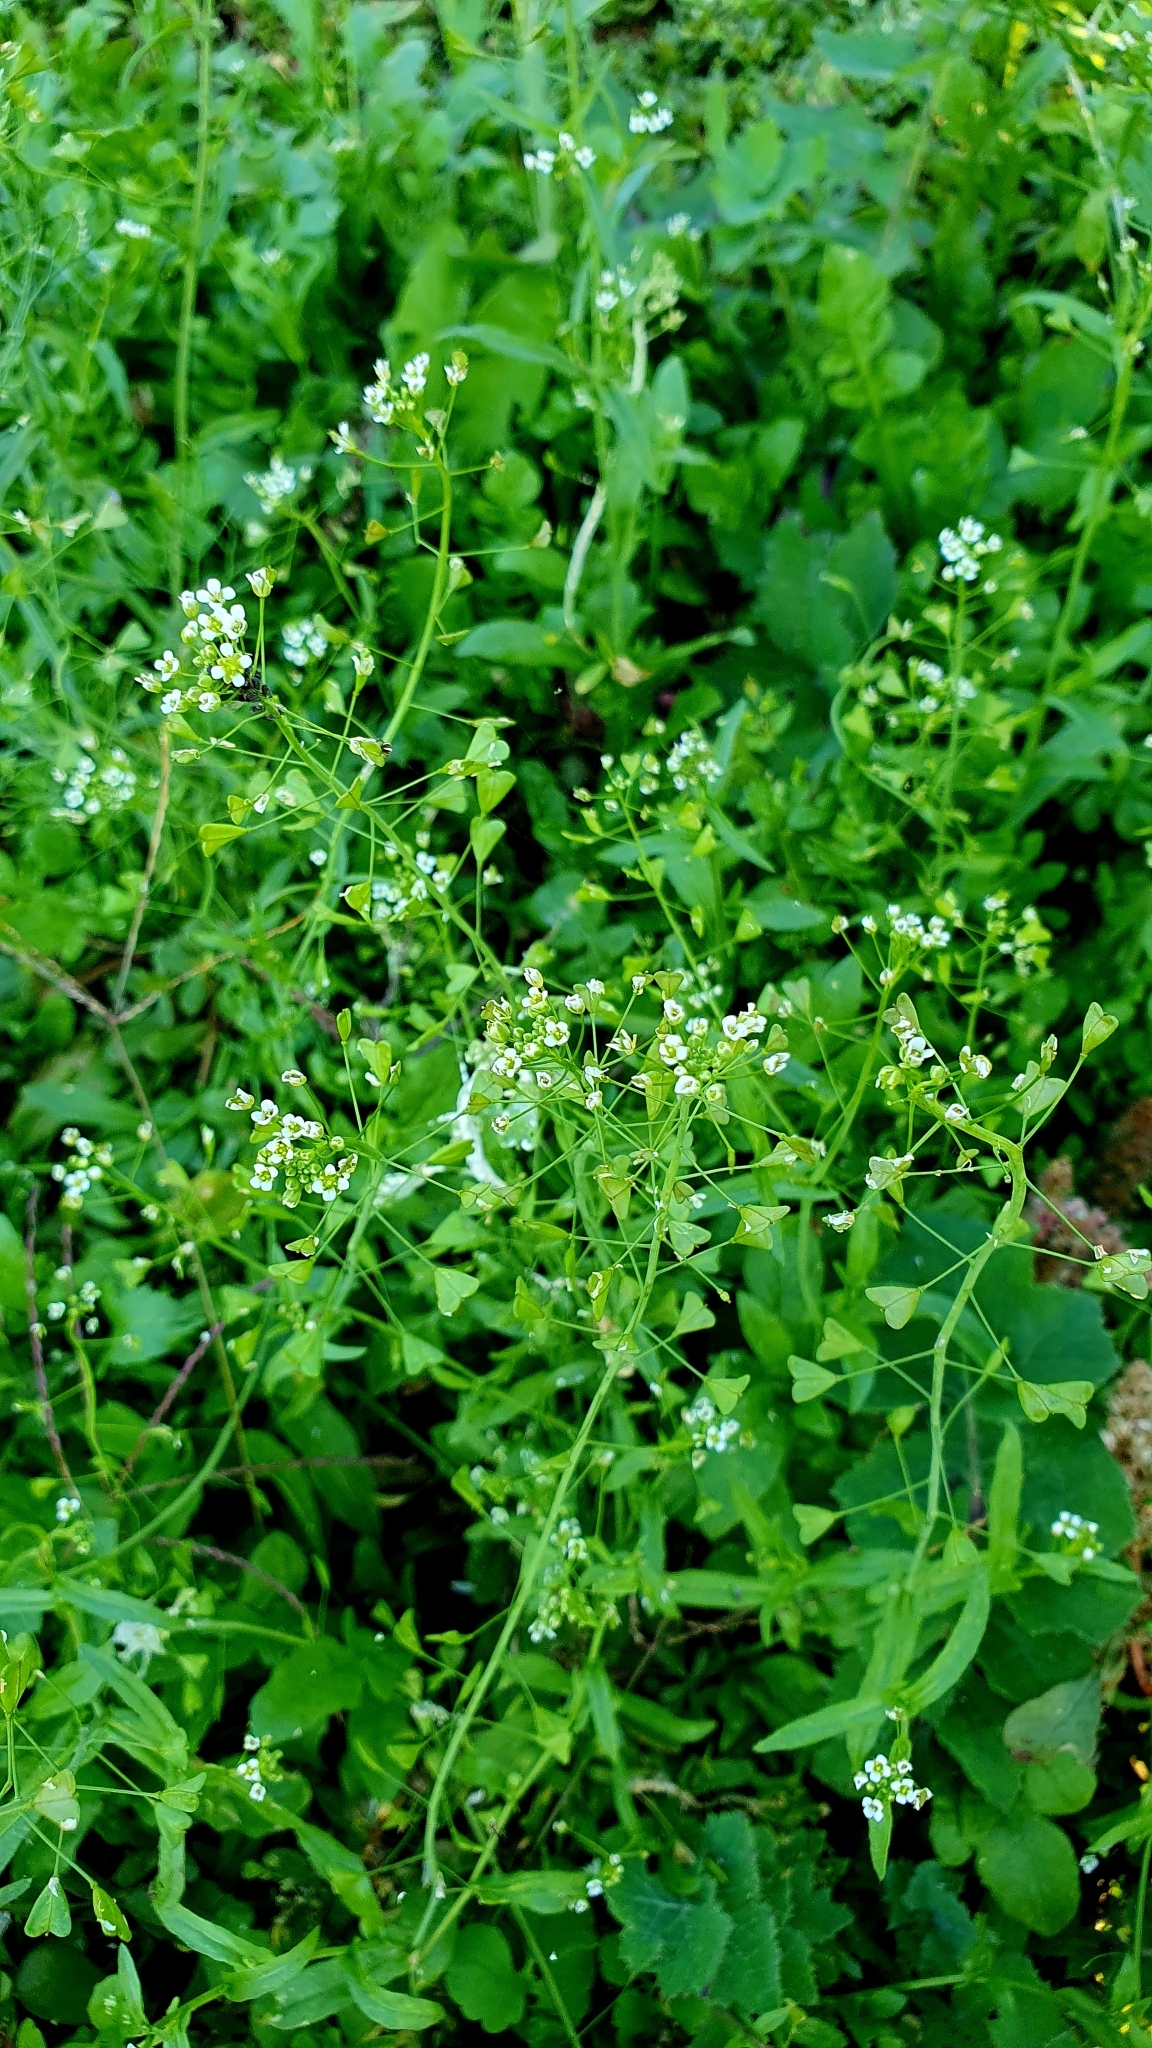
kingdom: Plantae
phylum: Tracheophyta
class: Magnoliopsida
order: Brassicales
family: Brassicaceae
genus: Capsella
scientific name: Capsella bursa-pastoris
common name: Shepherd's purse
